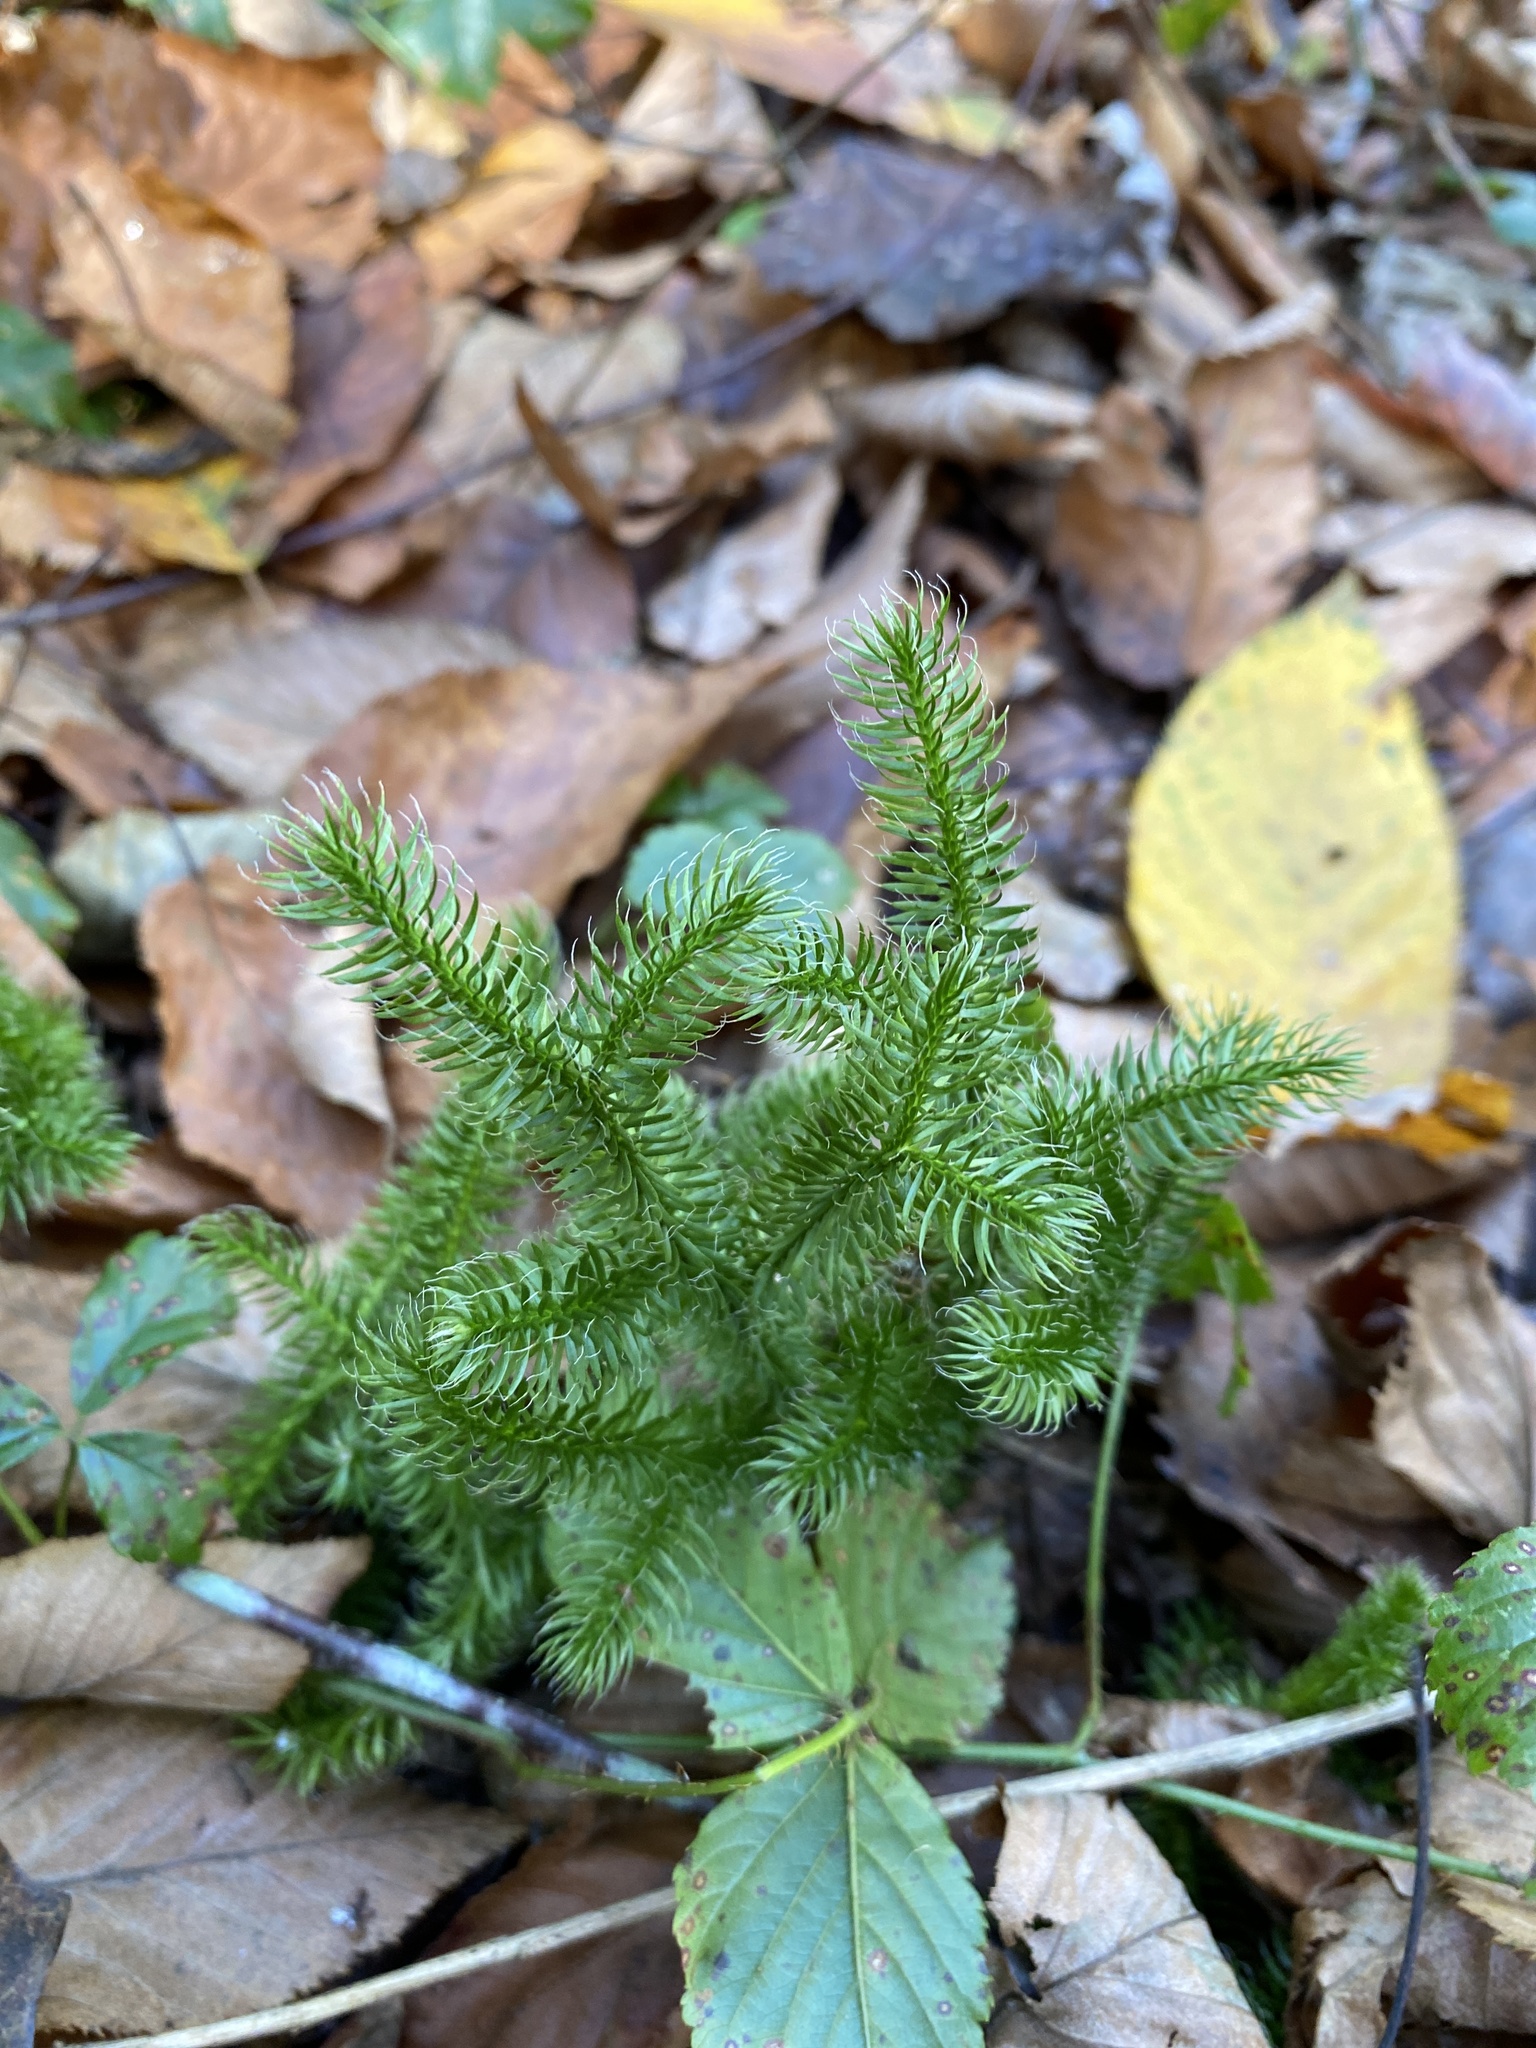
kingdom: Plantae
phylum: Tracheophyta
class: Lycopodiopsida
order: Lycopodiales
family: Lycopodiaceae
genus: Lycopodium
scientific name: Lycopodium clavatum
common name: Stag's-horn clubmoss
